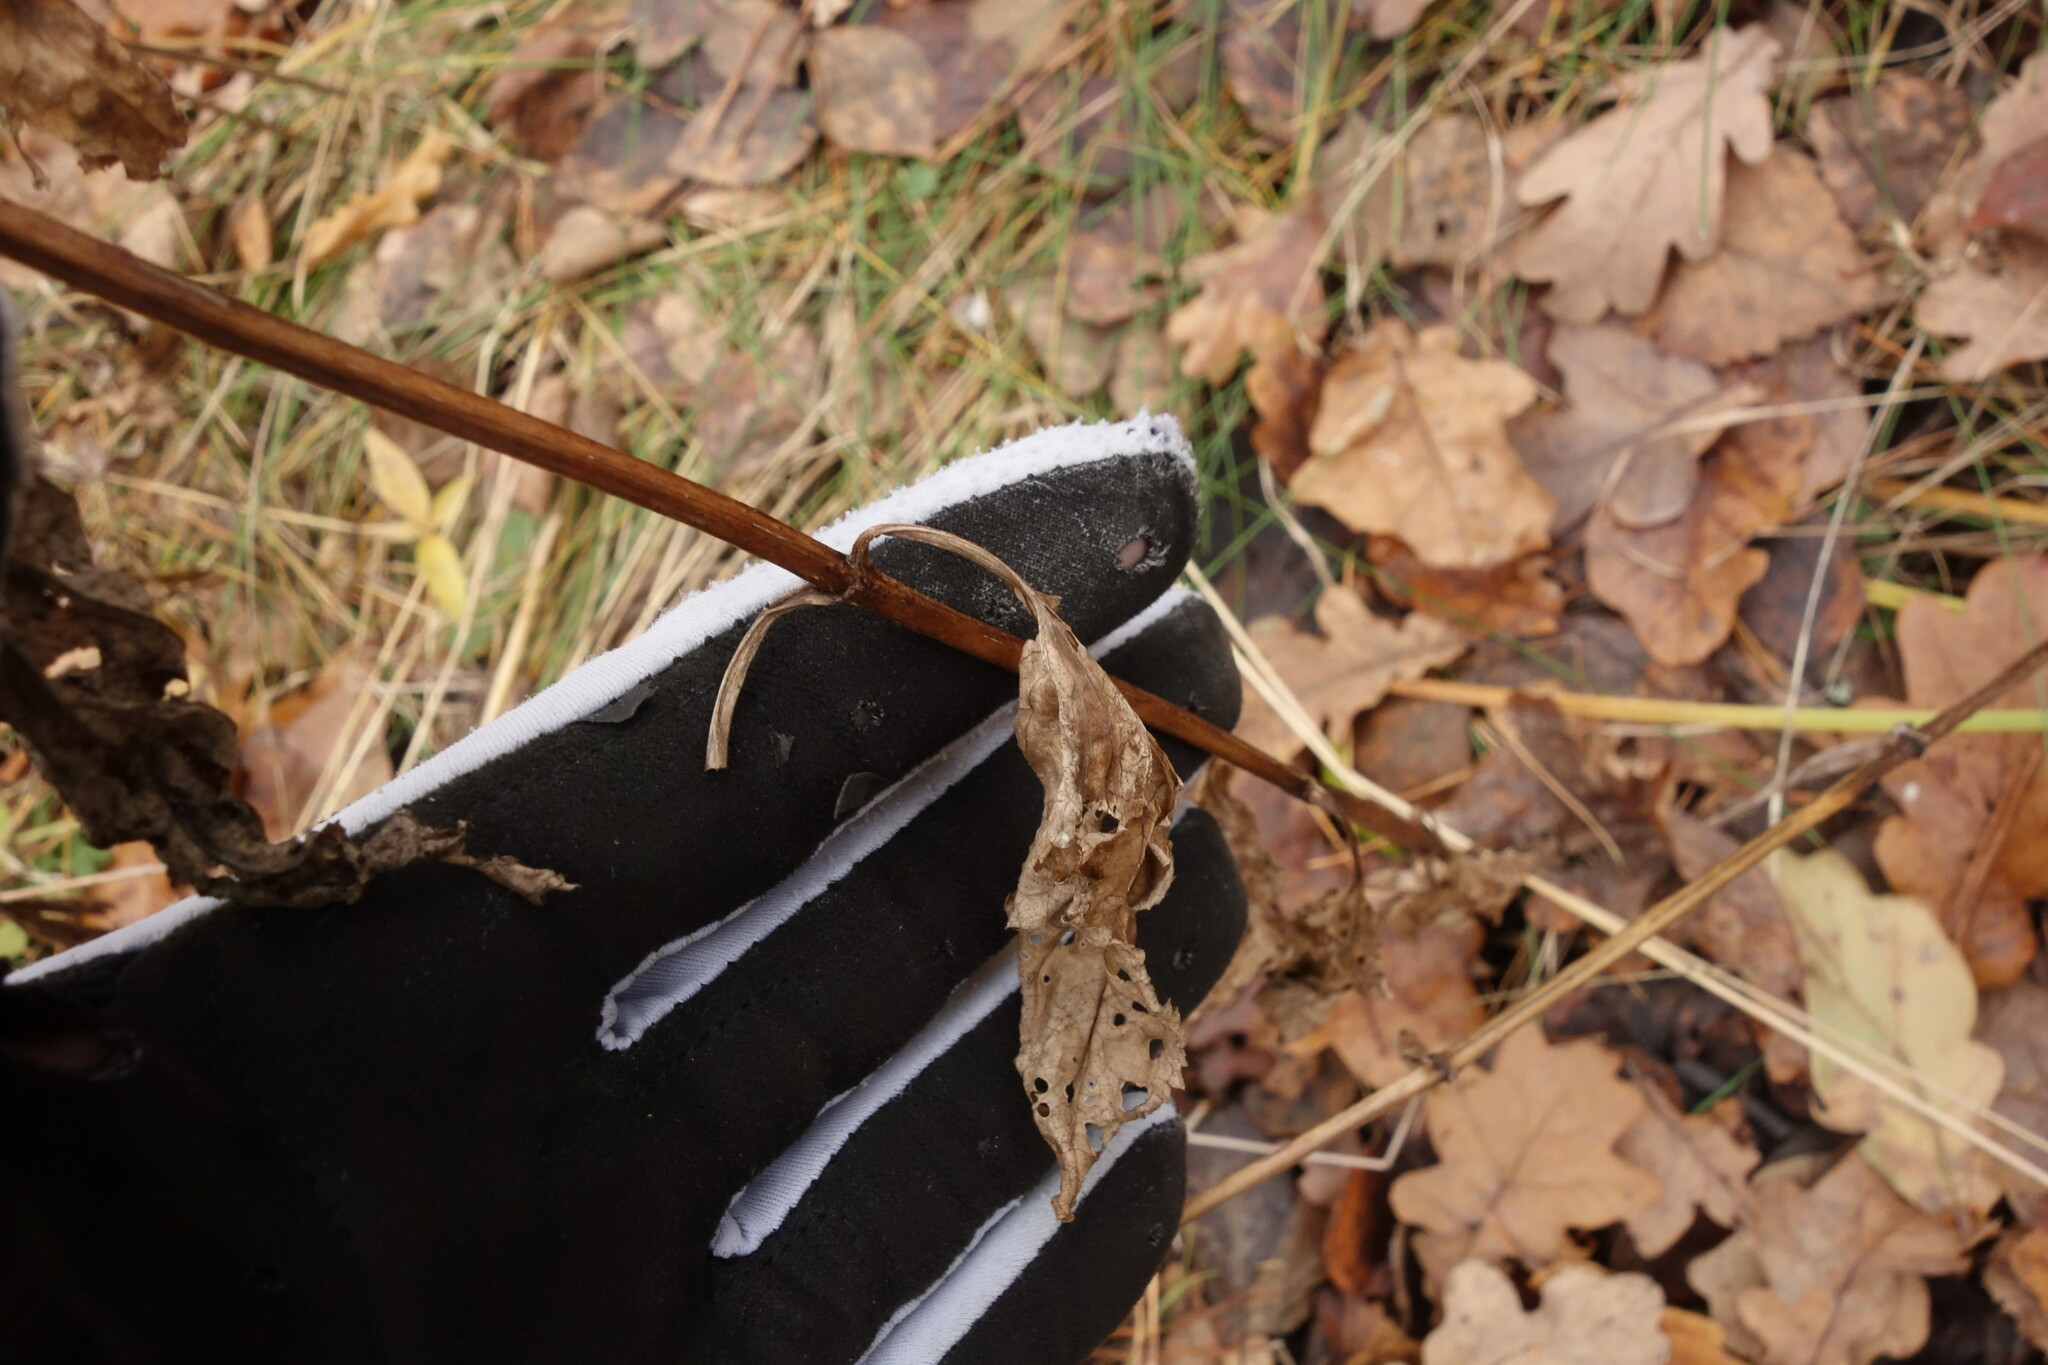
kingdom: Plantae
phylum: Tracheophyta
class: Magnoliopsida
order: Lamiales
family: Scrophulariaceae
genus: Scrophularia
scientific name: Scrophularia nodosa
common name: Common figwort
